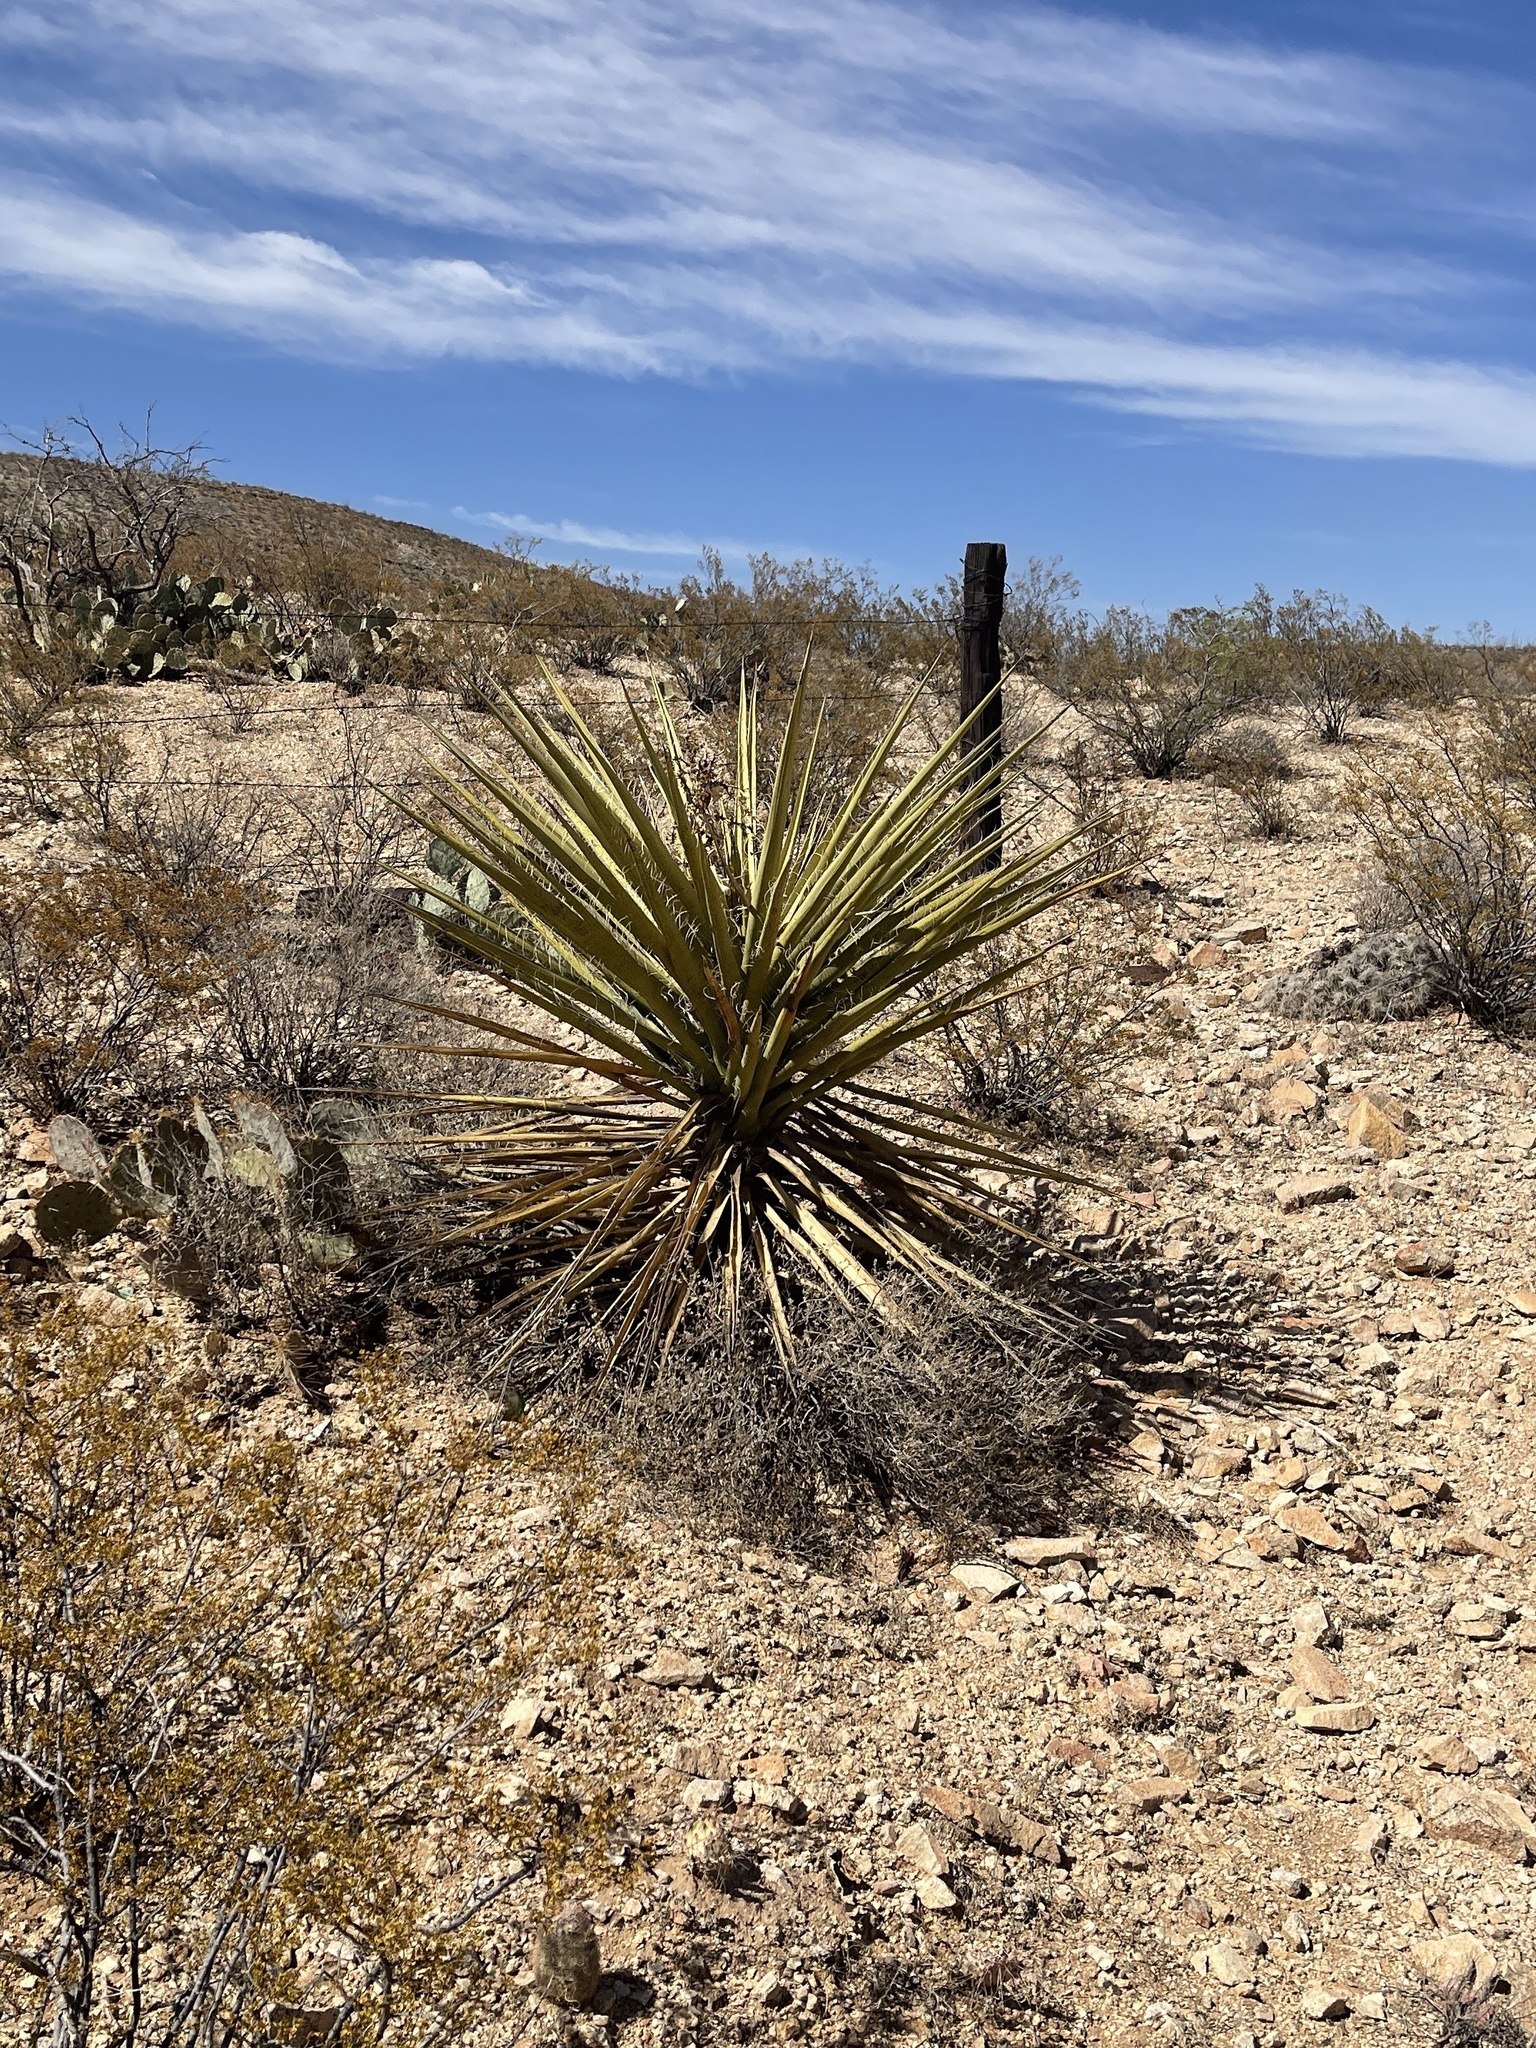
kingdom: Plantae
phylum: Tracheophyta
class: Liliopsida
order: Asparagales
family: Asparagaceae
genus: Yucca
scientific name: Yucca treculiana
